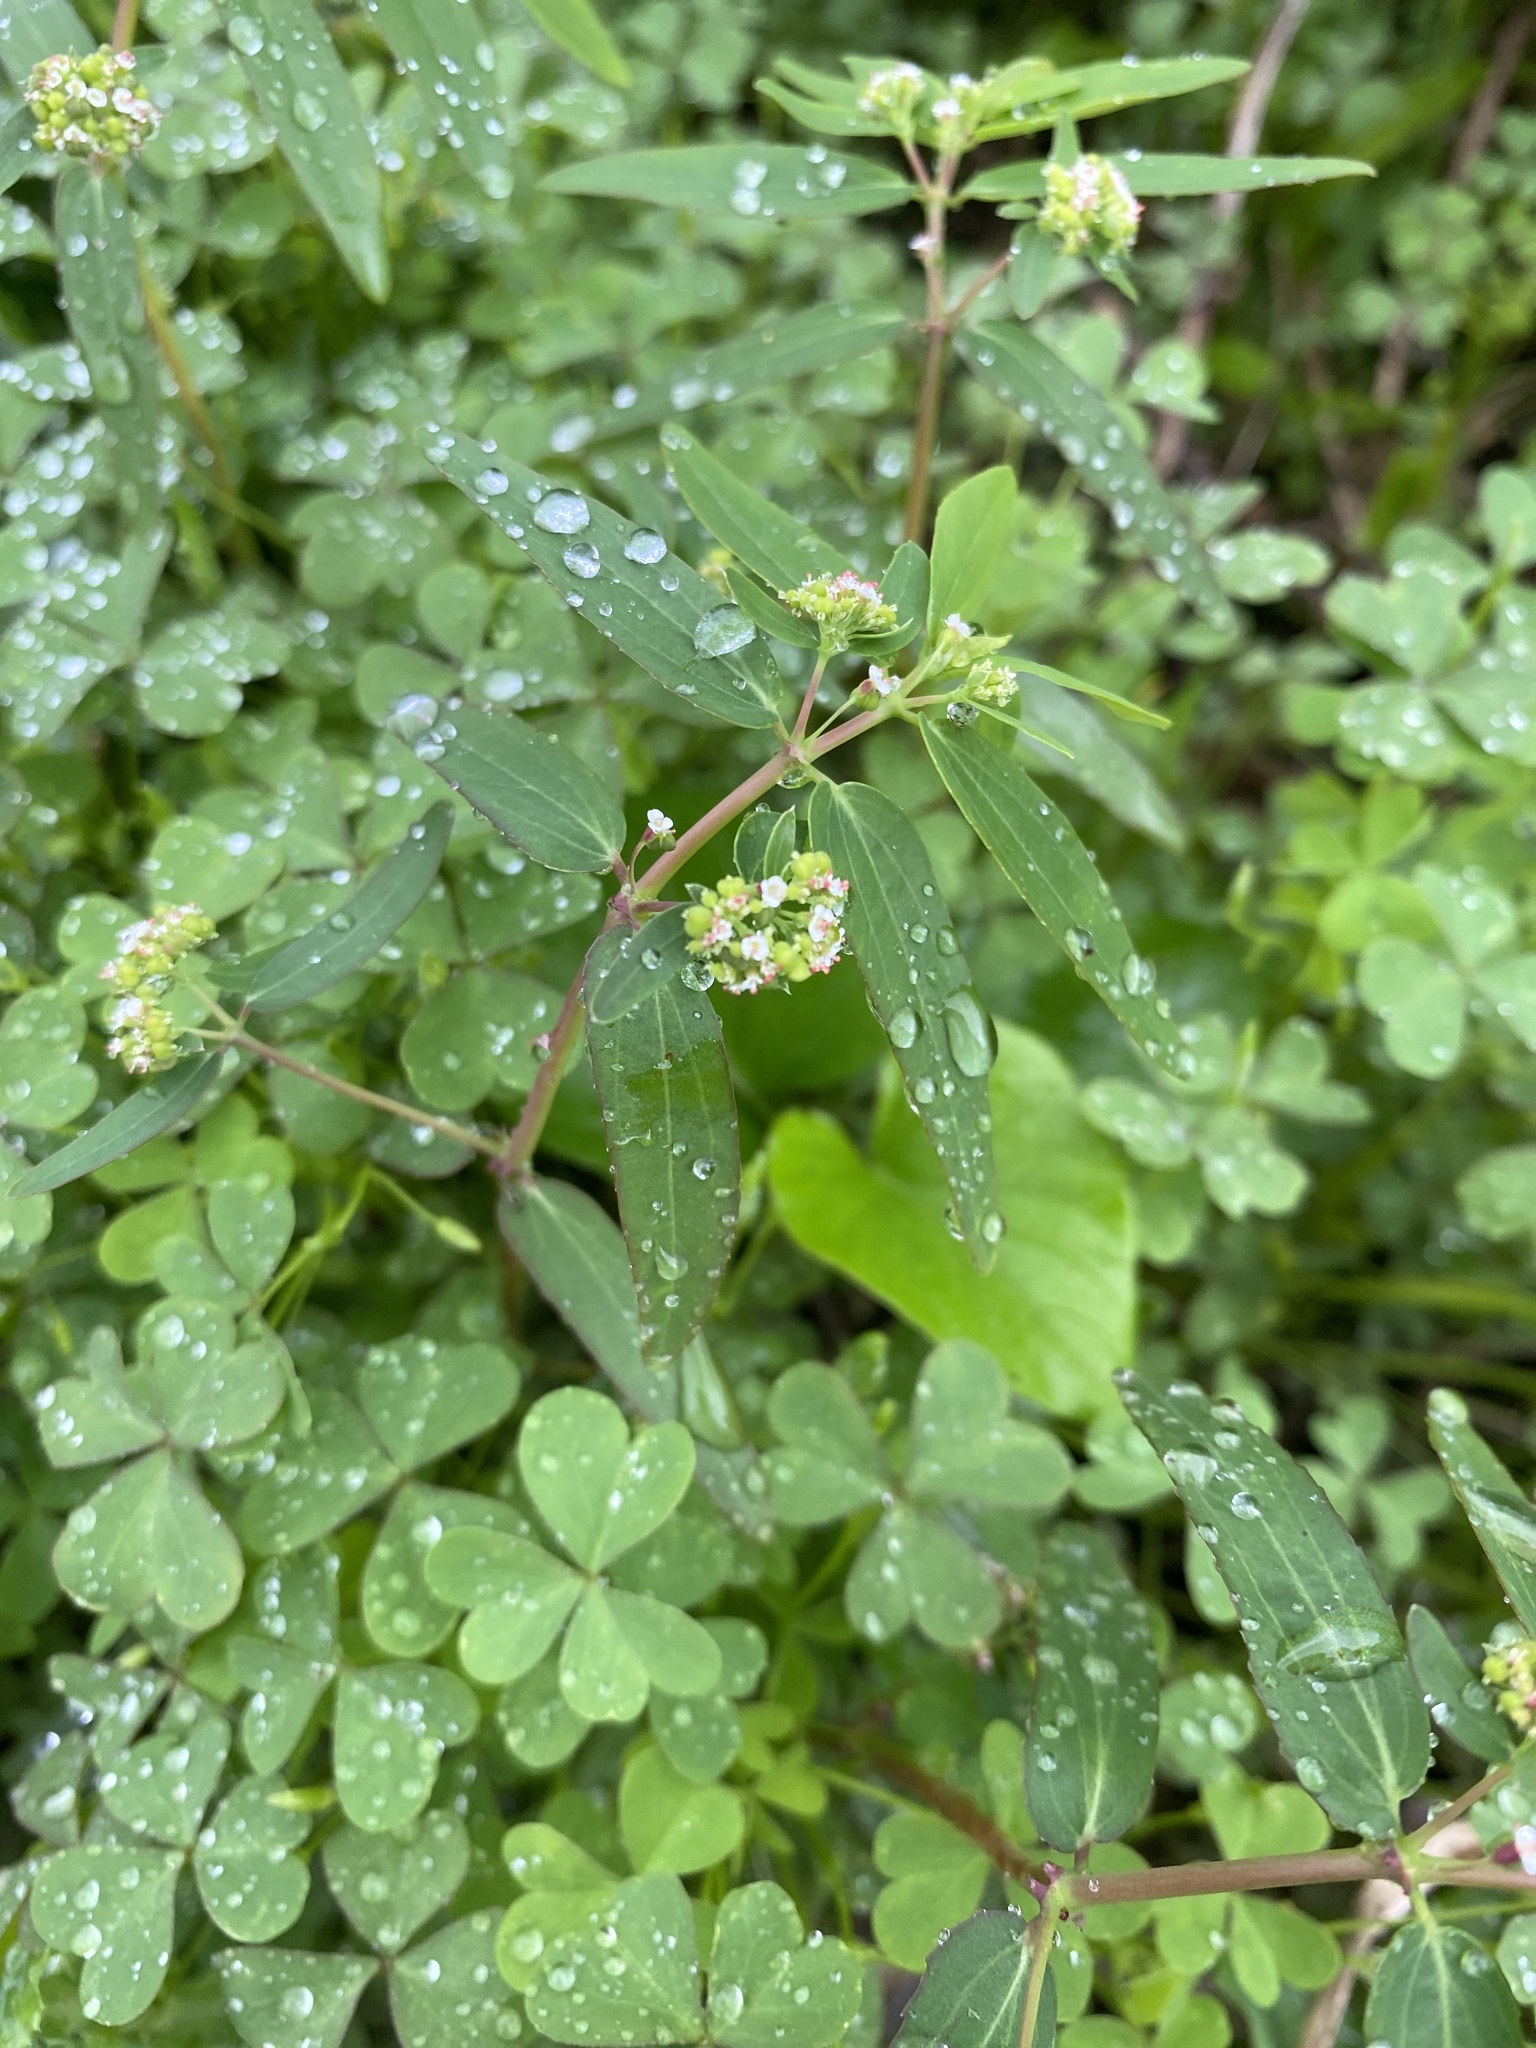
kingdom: Plantae
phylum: Tracheophyta
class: Magnoliopsida
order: Malpighiales
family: Euphorbiaceae
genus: Euphorbia
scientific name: Euphorbia hypericifolia
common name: Graceful sandmat
